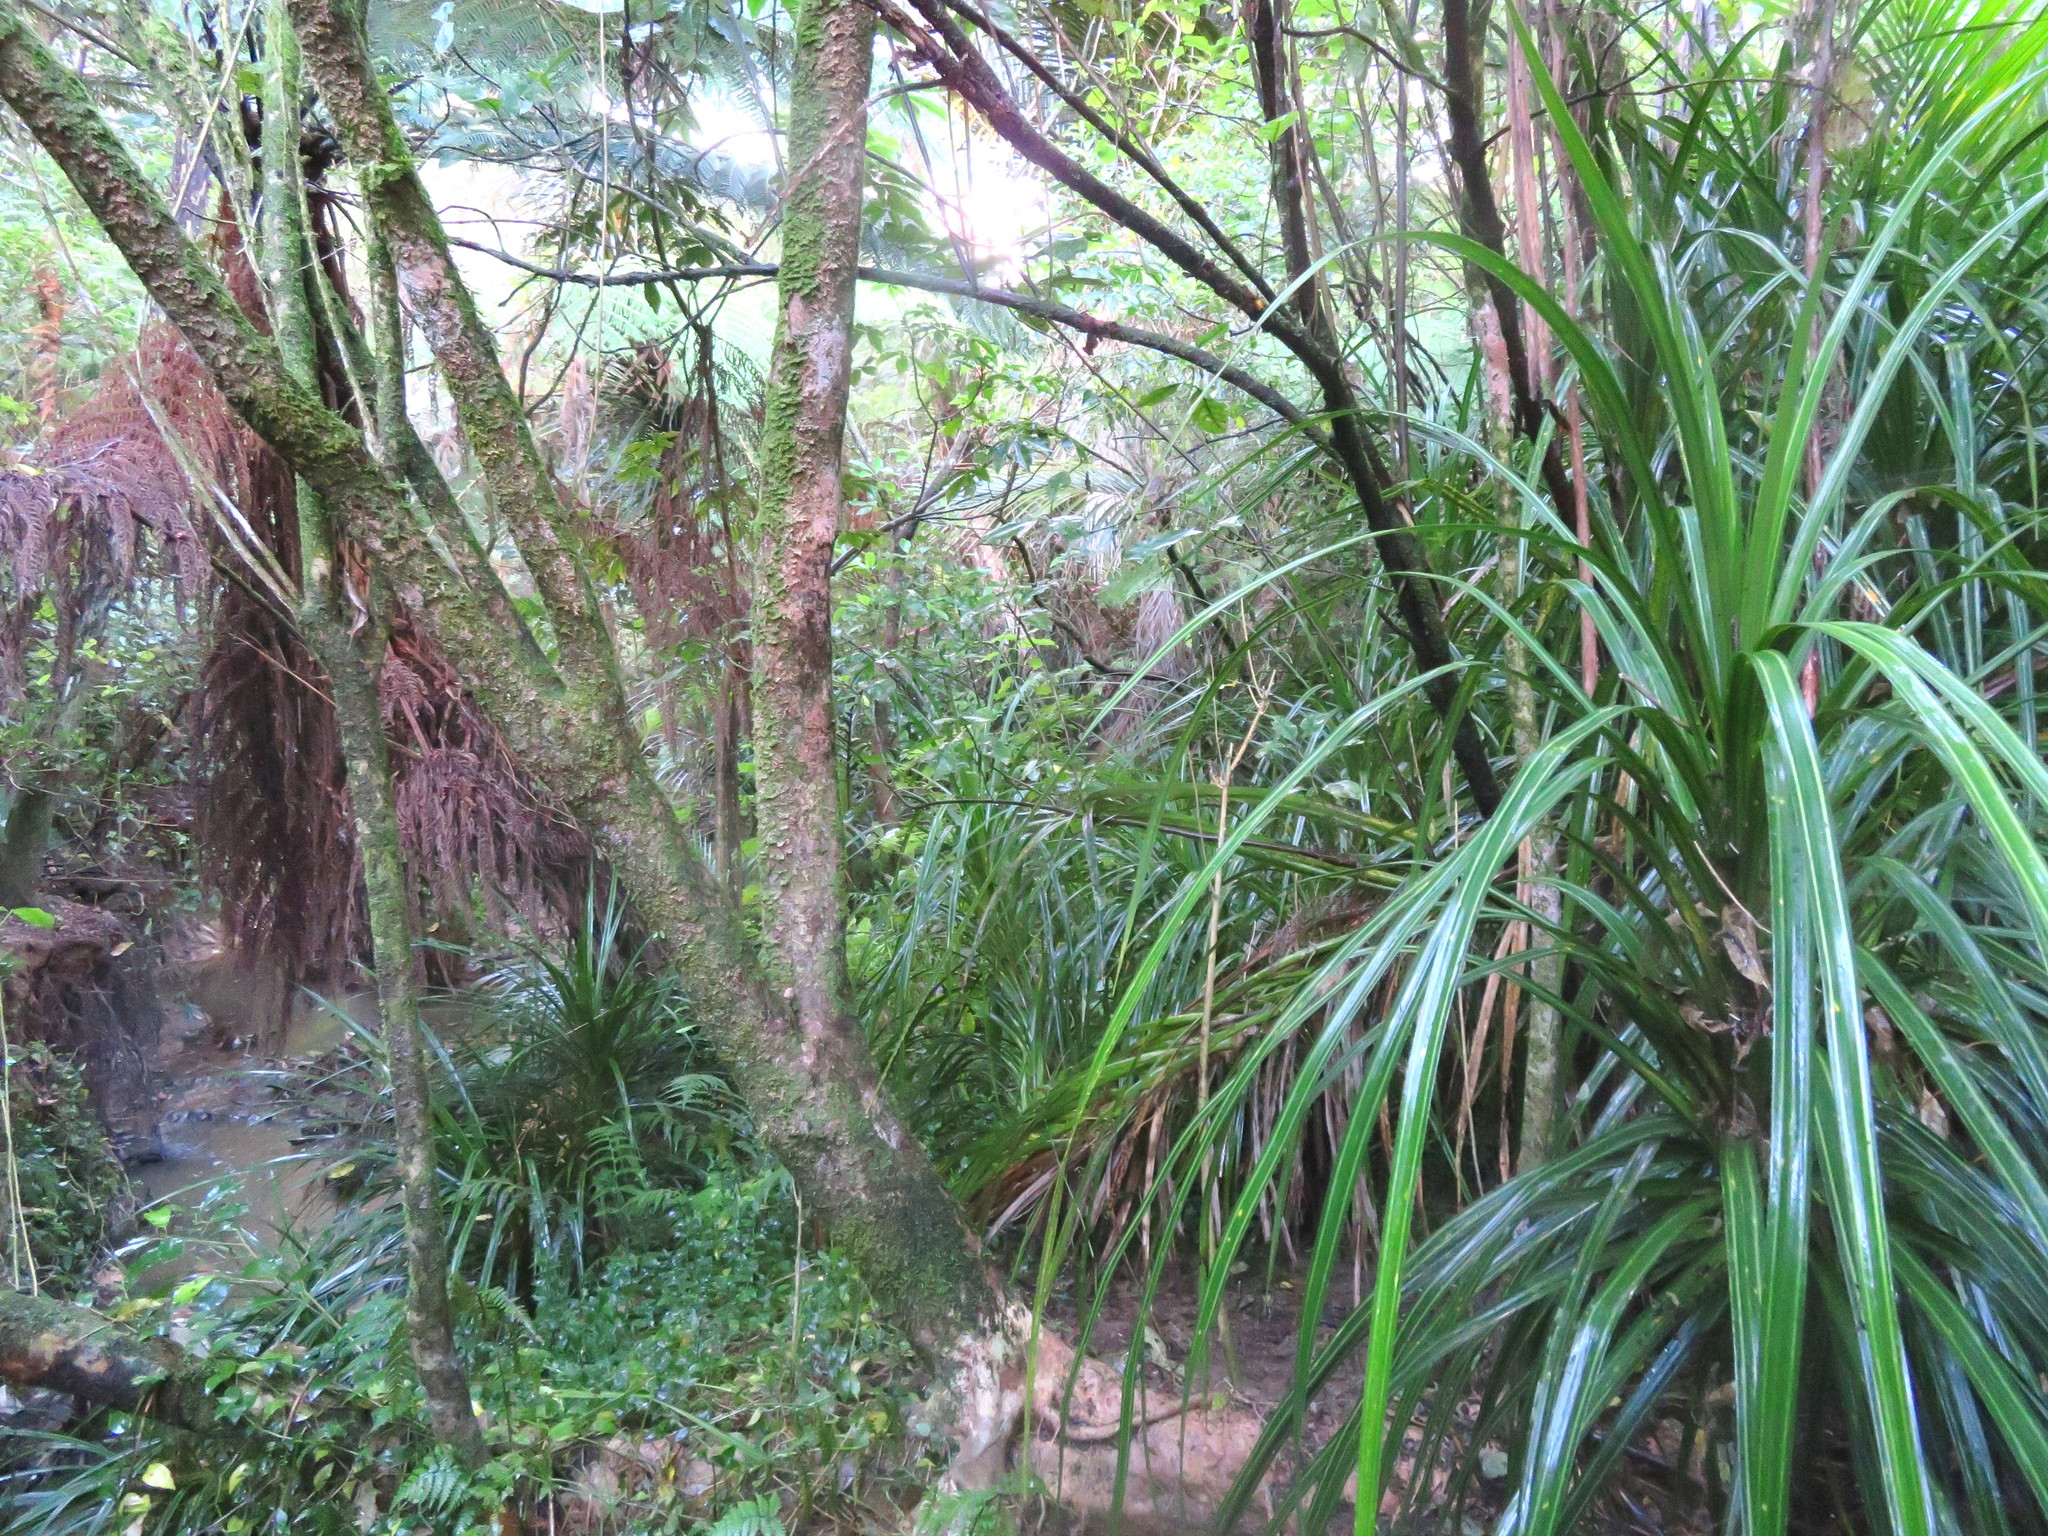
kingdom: Plantae
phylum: Tracheophyta
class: Liliopsida
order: Pandanales
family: Pandanaceae
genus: Freycinetia
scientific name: Freycinetia banksii
